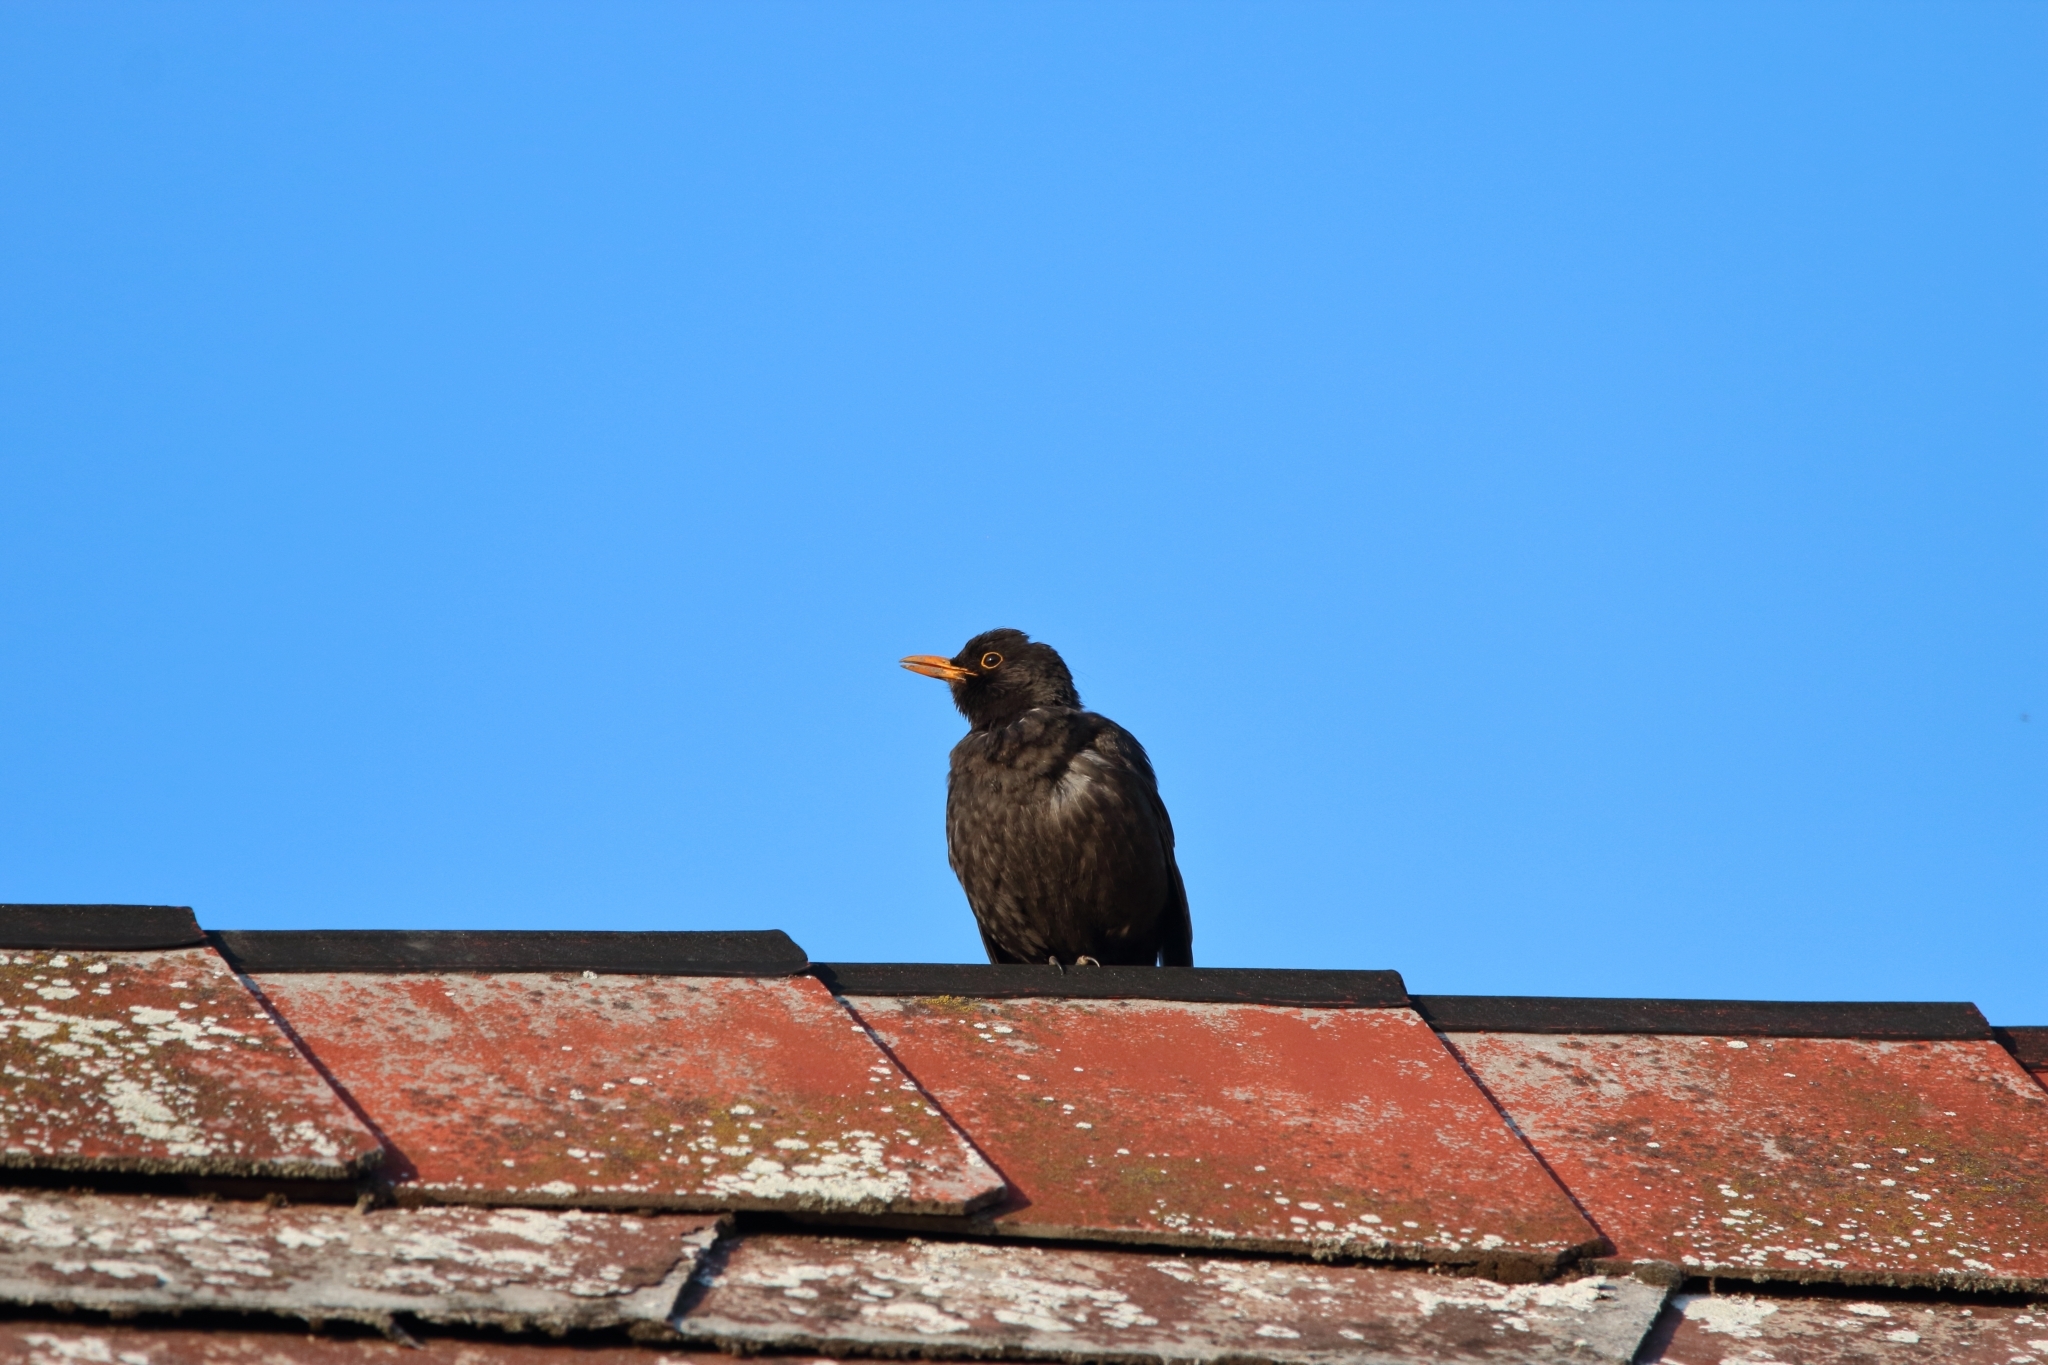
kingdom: Animalia
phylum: Chordata
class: Aves
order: Passeriformes
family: Turdidae
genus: Turdus
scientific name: Turdus merula
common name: Common blackbird
